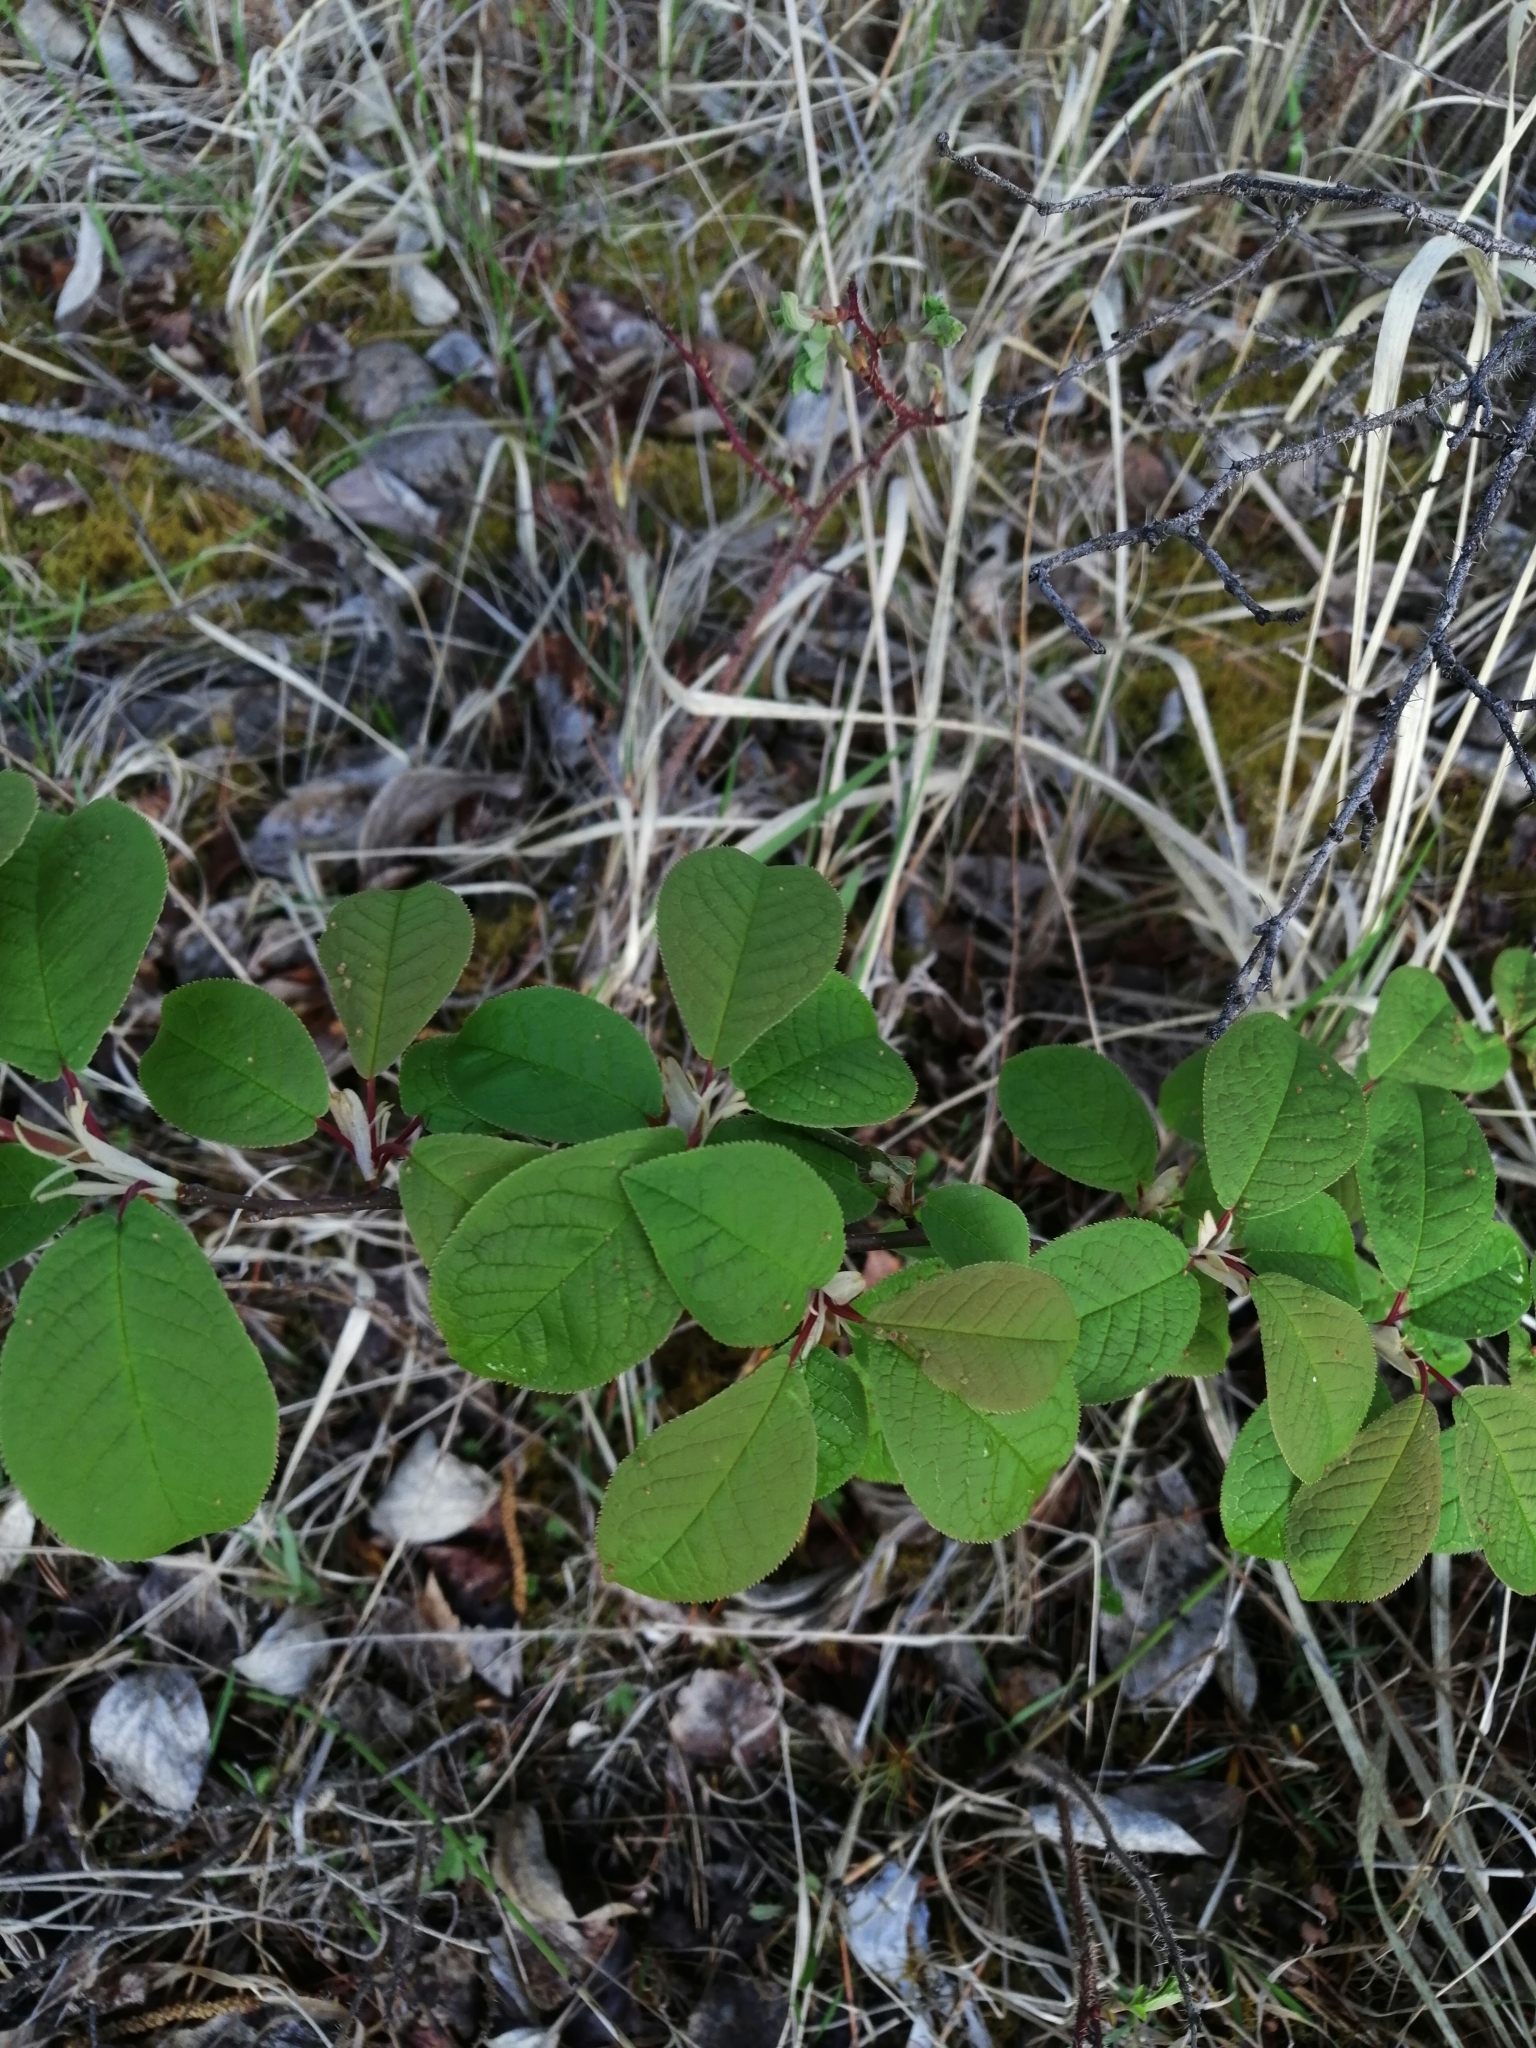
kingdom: Plantae
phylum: Tracheophyta
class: Magnoliopsida
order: Rosales
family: Rosaceae
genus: Prunus
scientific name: Prunus padus
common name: Bird cherry
